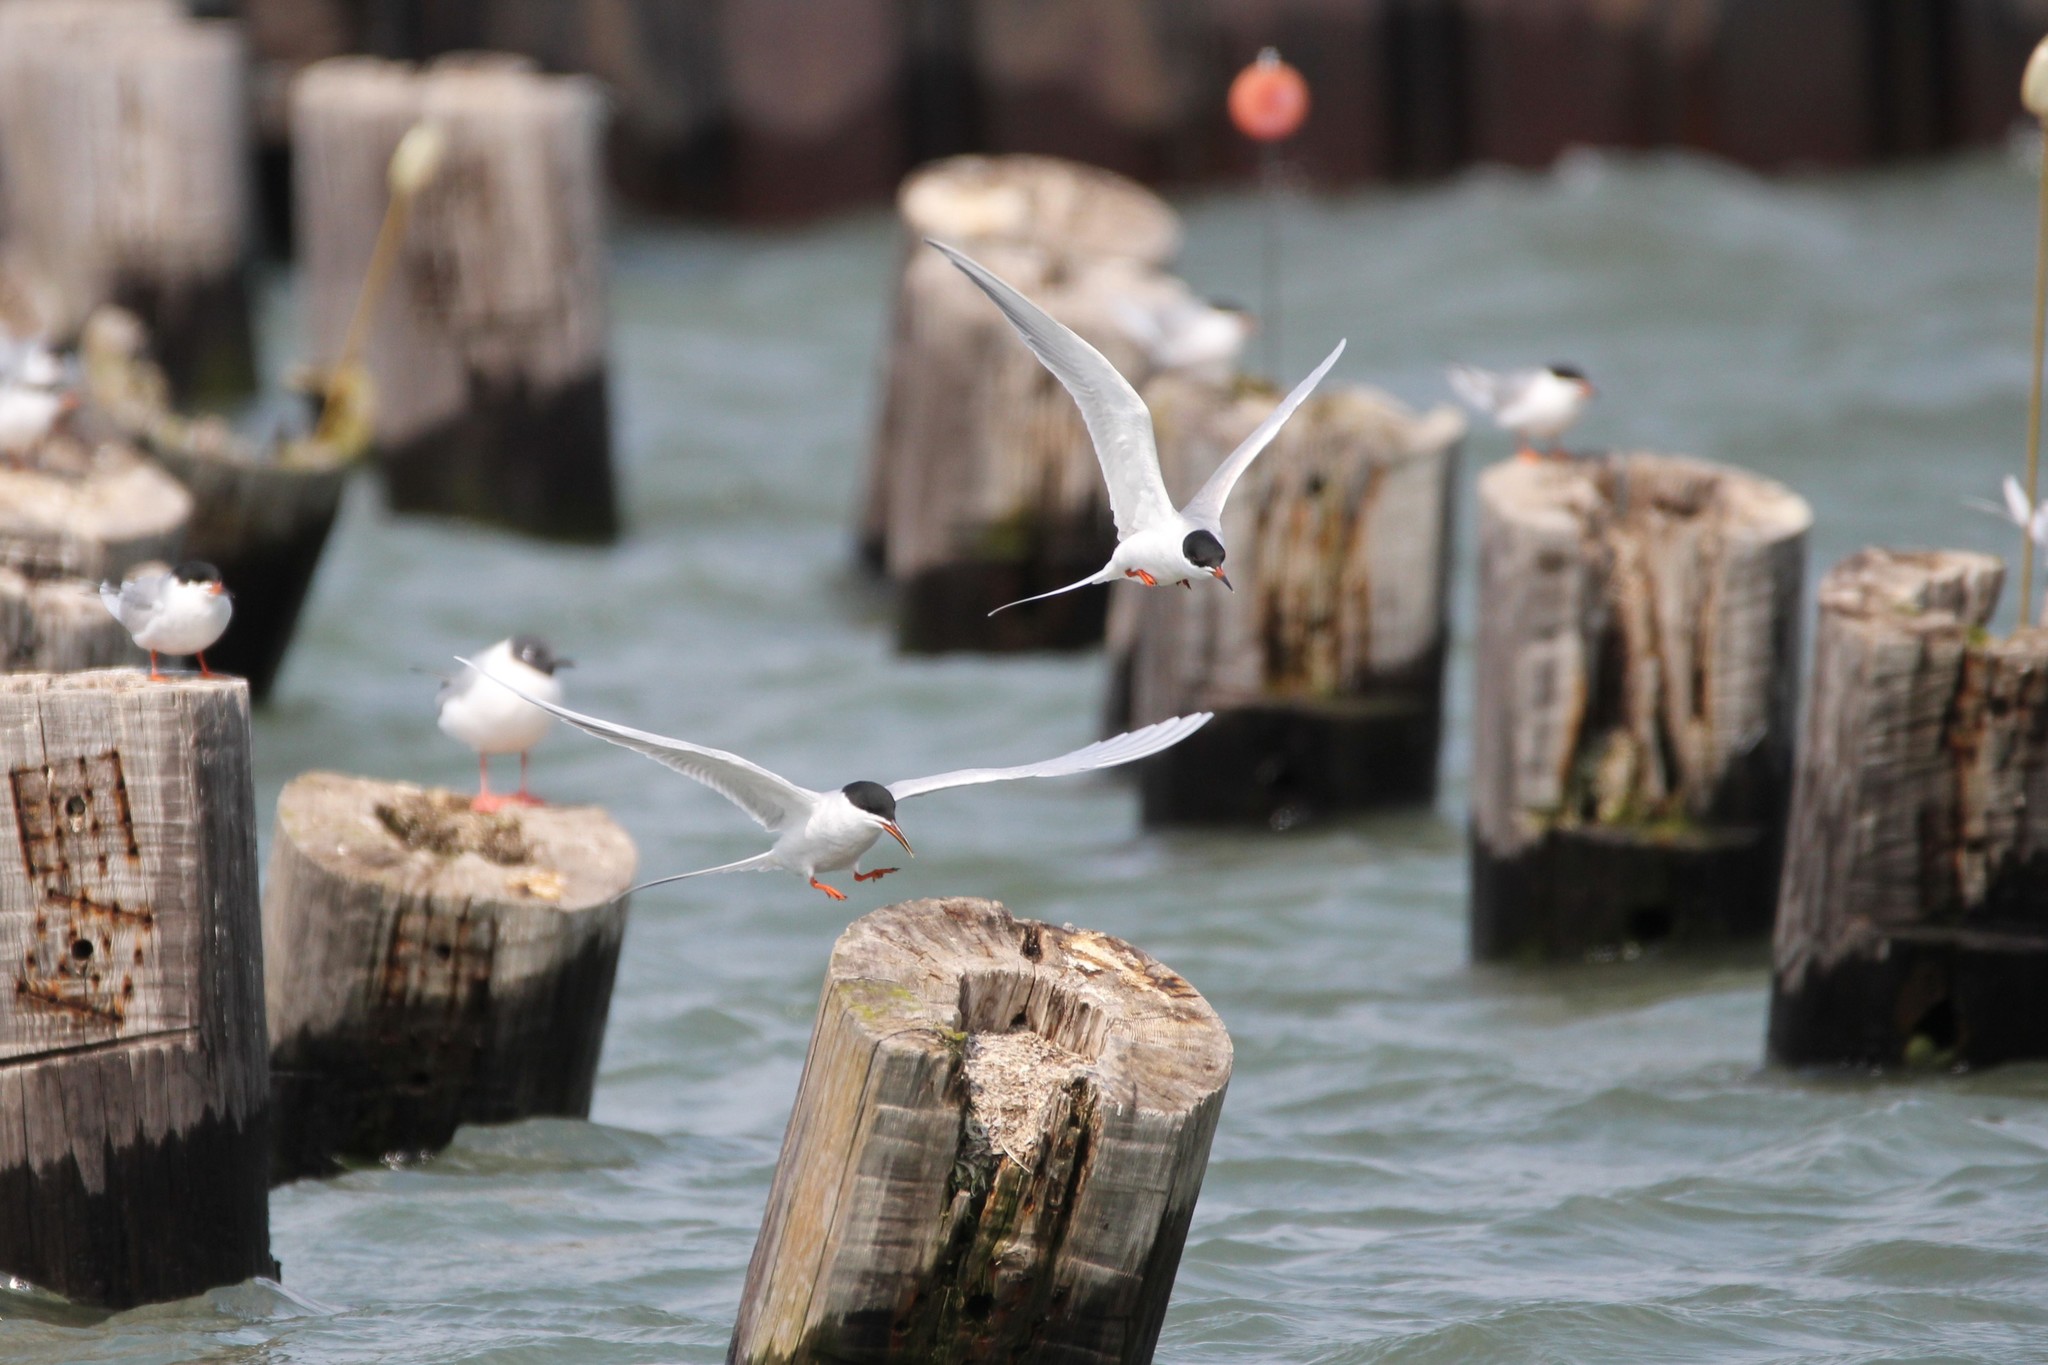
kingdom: Animalia
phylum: Chordata
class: Aves
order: Charadriiformes
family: Laridae
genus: Sterna
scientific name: Sterna forsteri
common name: Forster's tern
